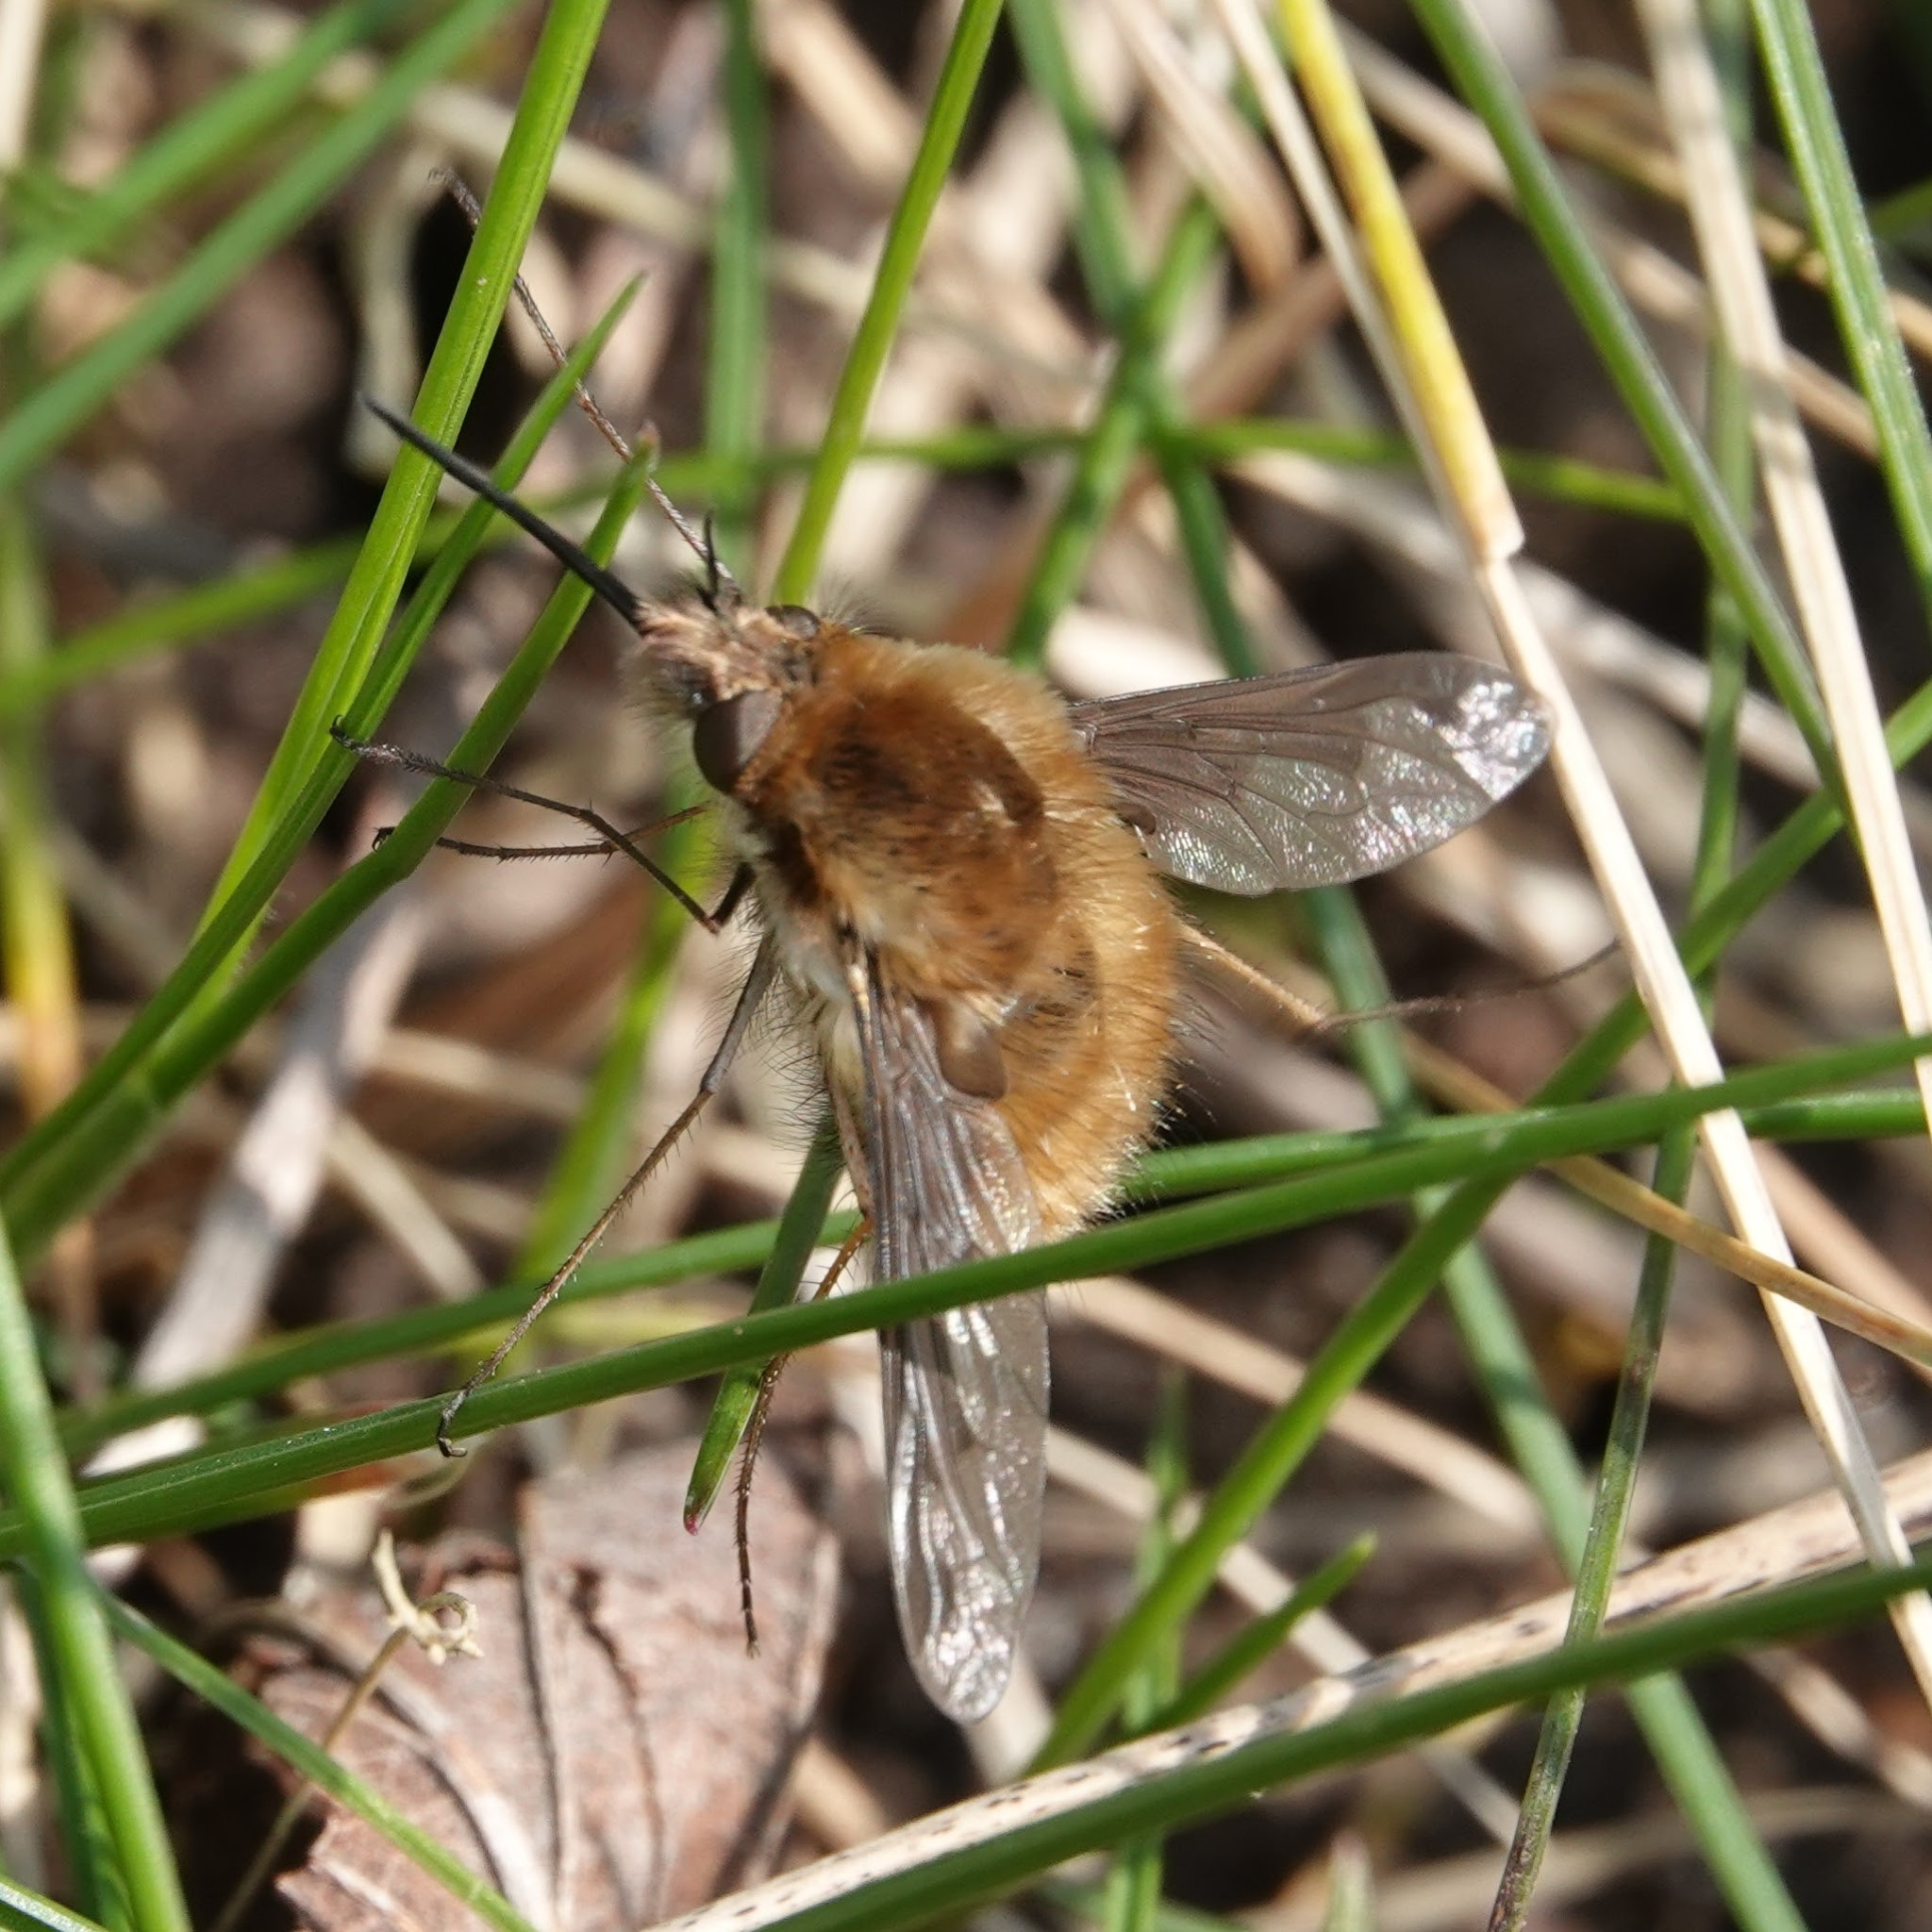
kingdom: Animalia
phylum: Arthropoda
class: Insecta
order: Diptera
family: Bombyliidae
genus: Bombylius
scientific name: Bombylius major
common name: Bee fly
